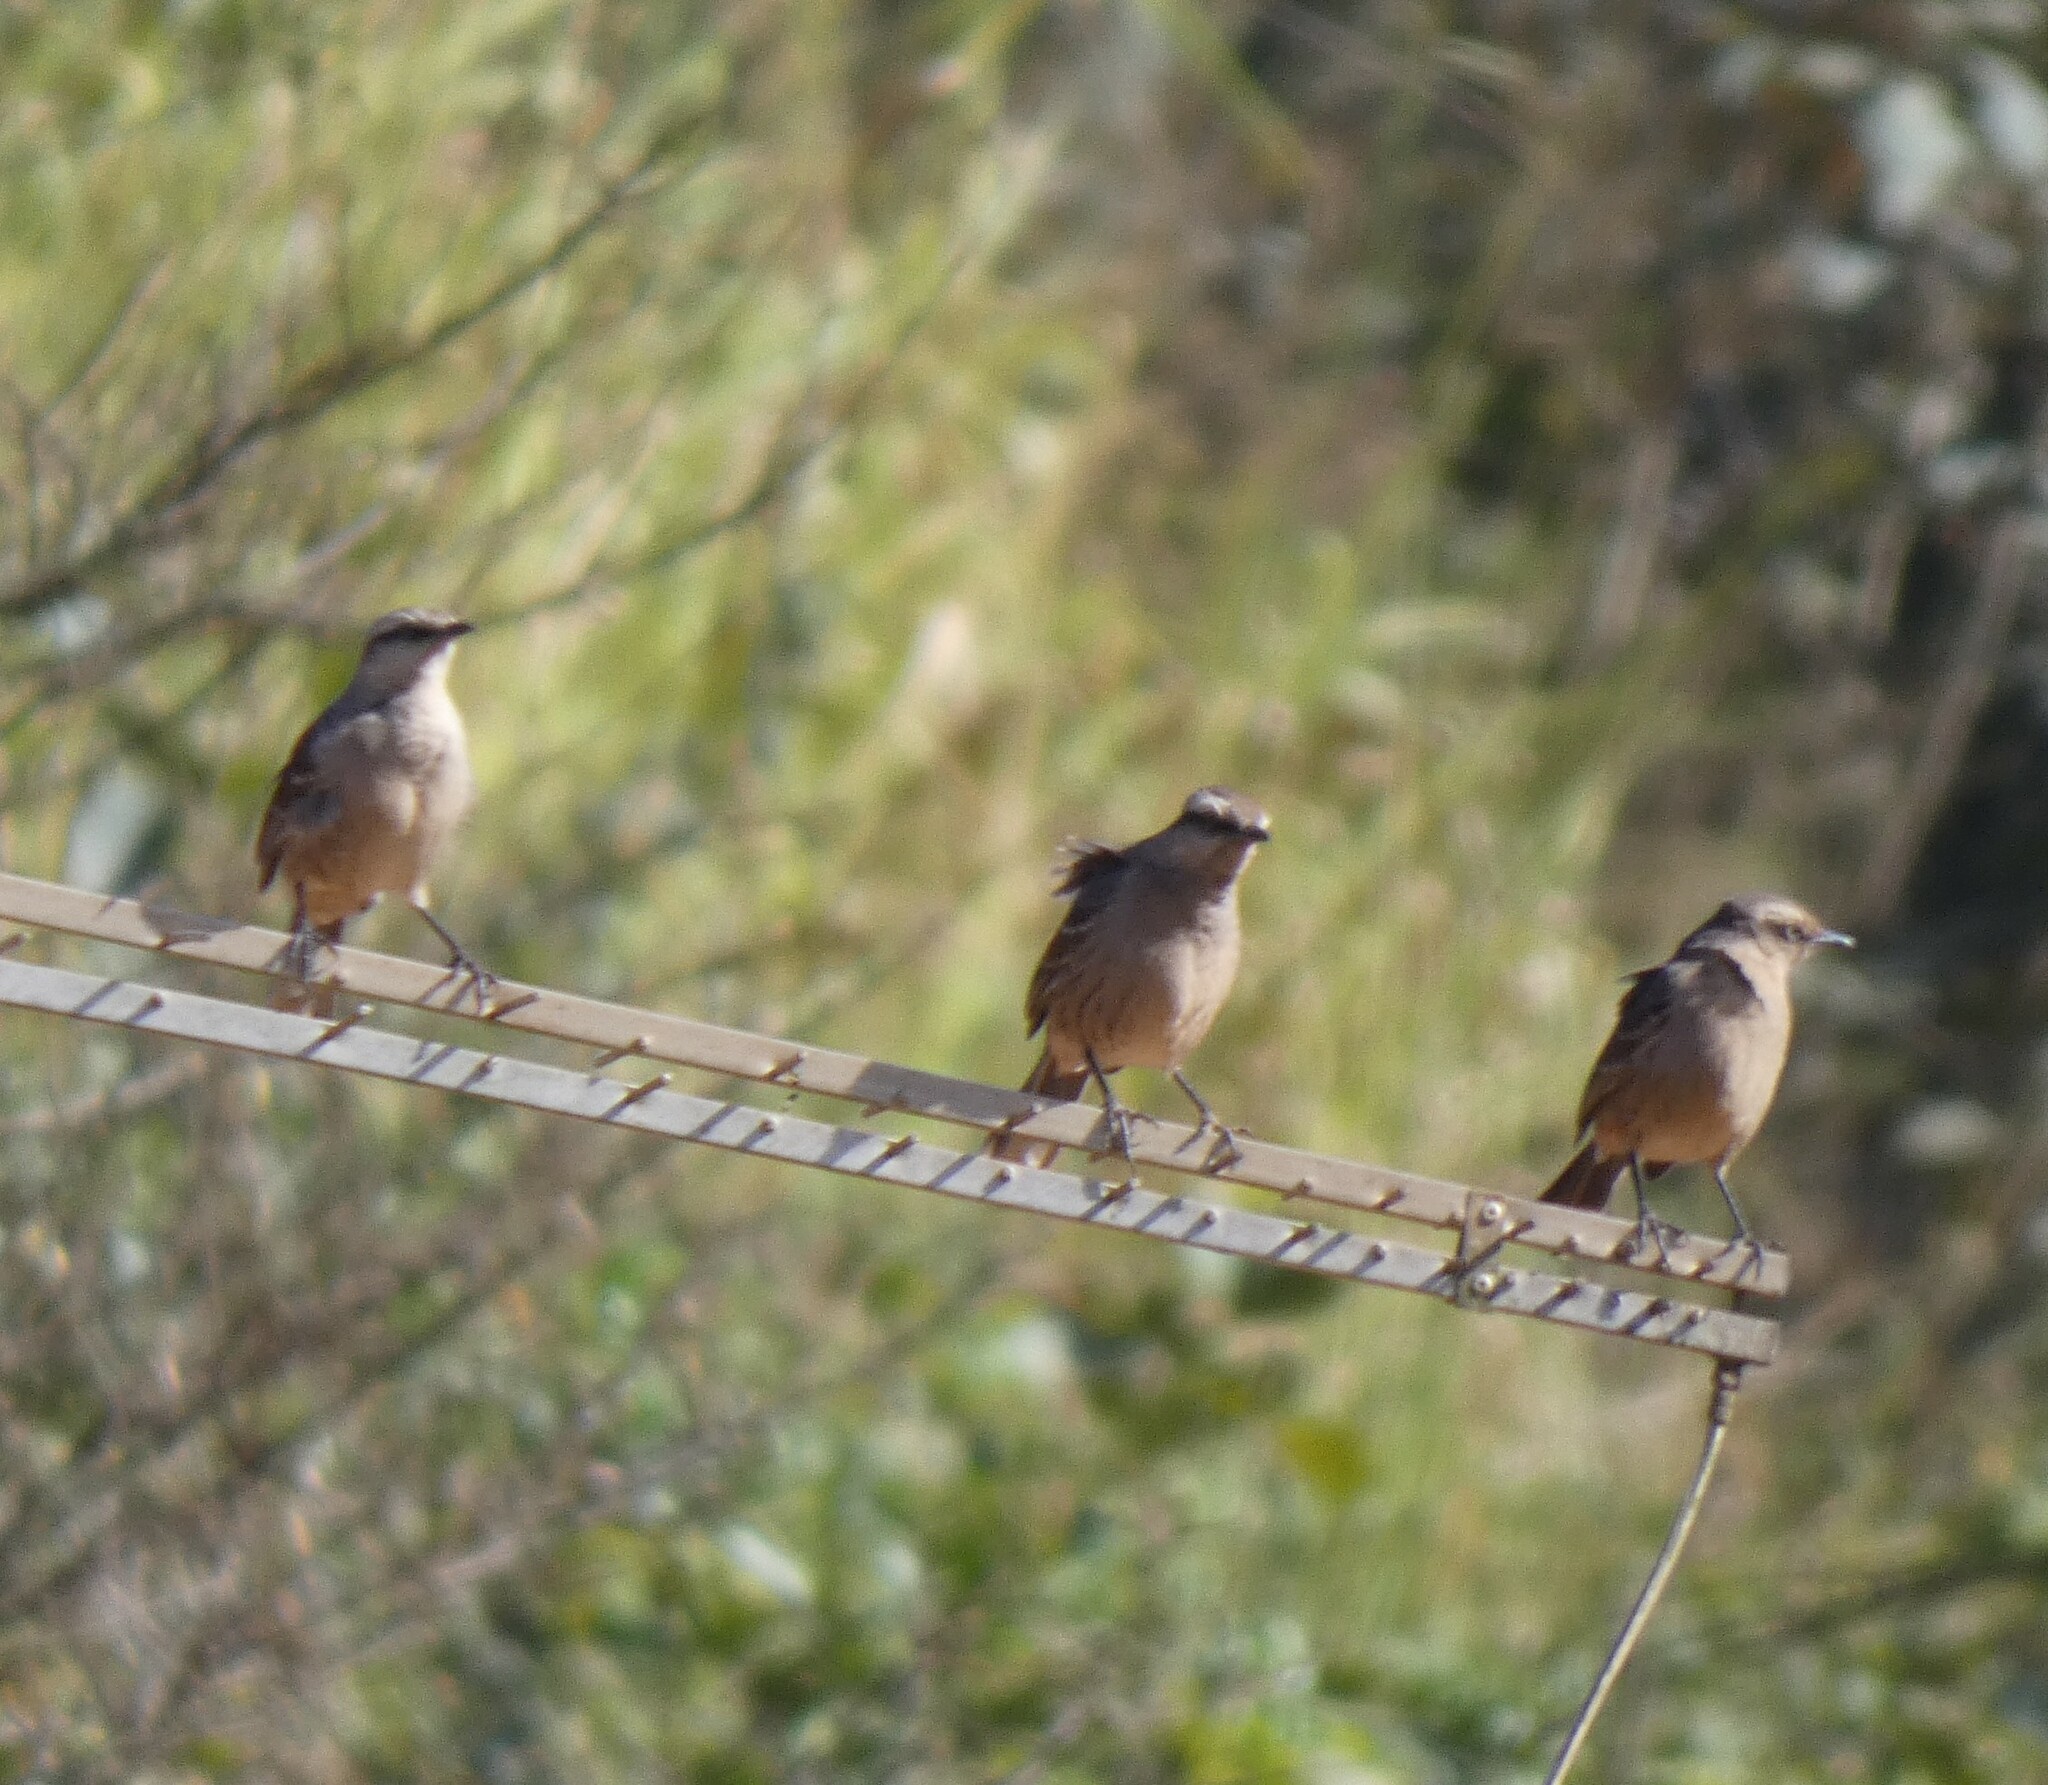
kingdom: Animalia
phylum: Chordata
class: Aves
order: Passeriformes
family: Mimidae
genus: Mimus
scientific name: Mimus saturninus
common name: Chalk-browed mockingbird
